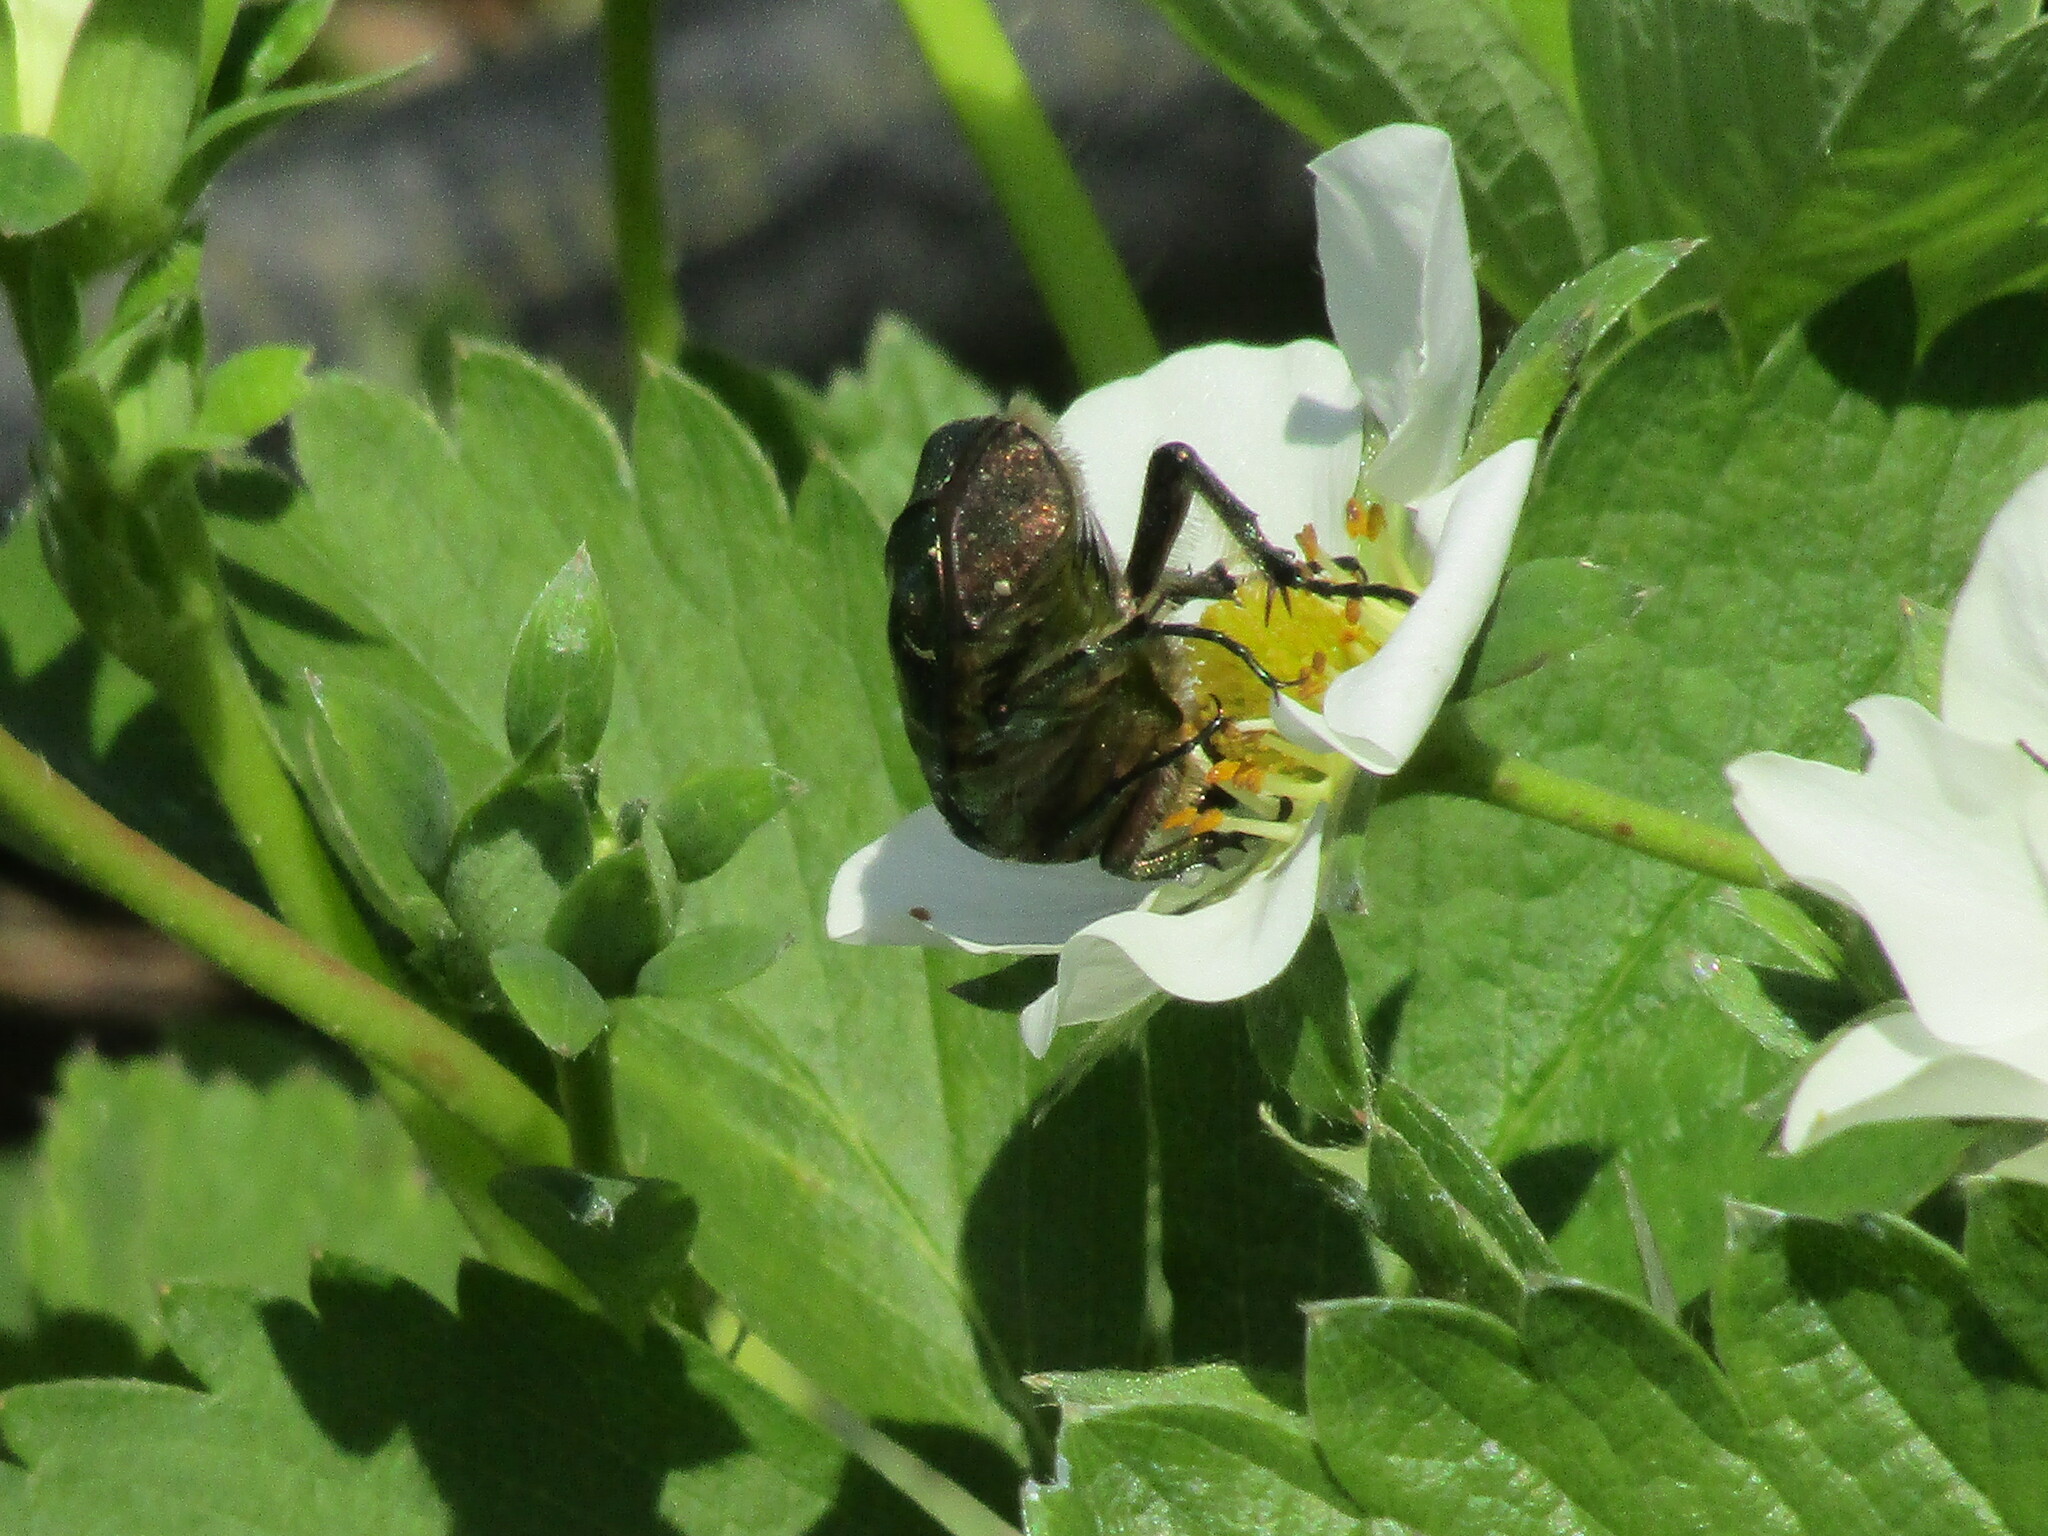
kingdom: Animalia
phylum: Arthropoda
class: Insecta
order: Coleoptera
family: Scarabaeidae
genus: Cetonia
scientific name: Cetonia aurata
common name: Rose chafer
